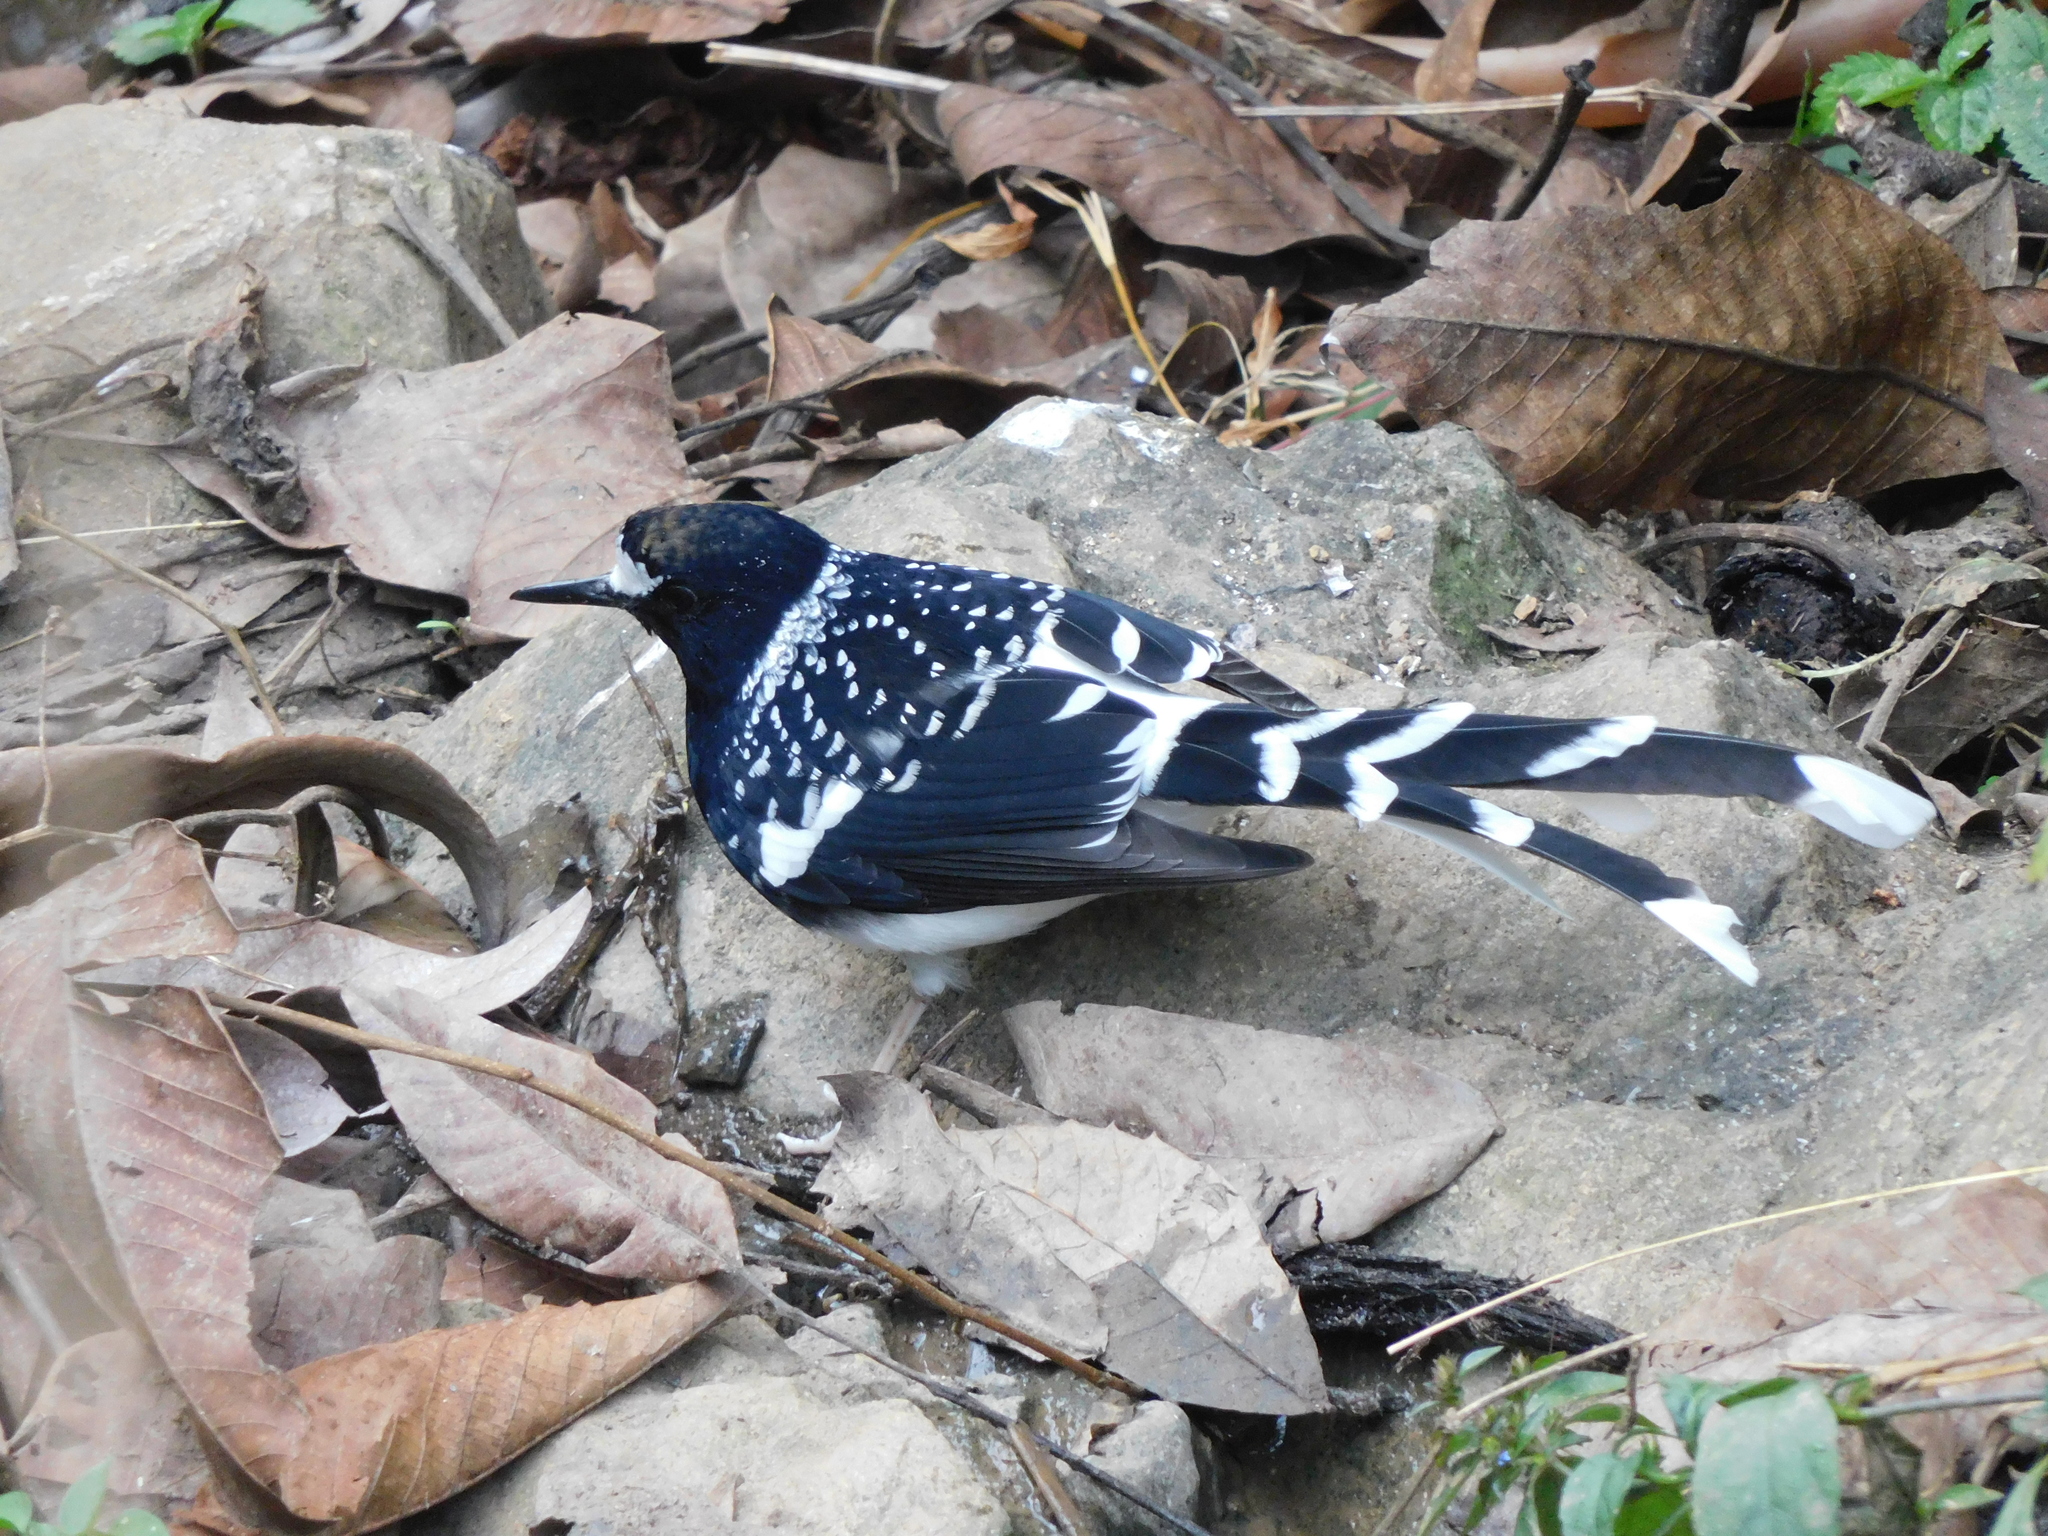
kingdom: Animalia
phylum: Chordata
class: Aves
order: Passeriformes
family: Muscicapidae
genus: Enicurus
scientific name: Enicurus maculatus
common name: Spotted forktail
